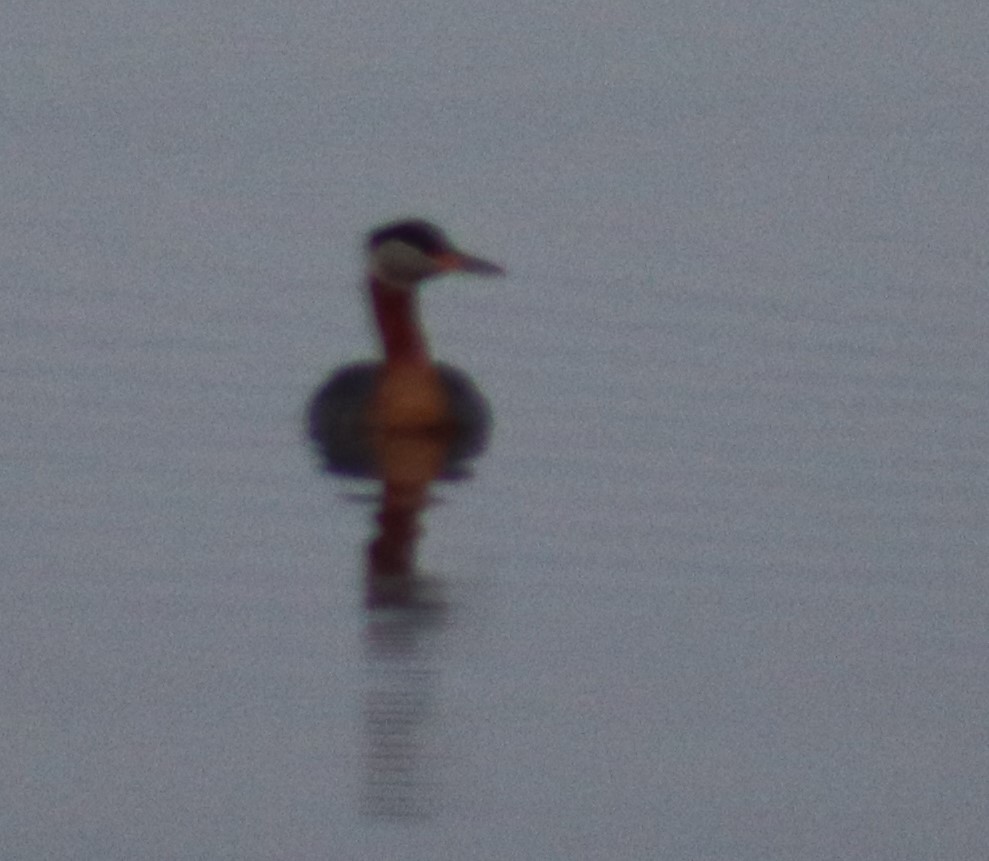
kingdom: Animalia
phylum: Chordata
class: Aves
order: Podicipediformes
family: Podicipedidae
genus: Podiceps
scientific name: Podiceps grisegena
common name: Red-necked grebe
